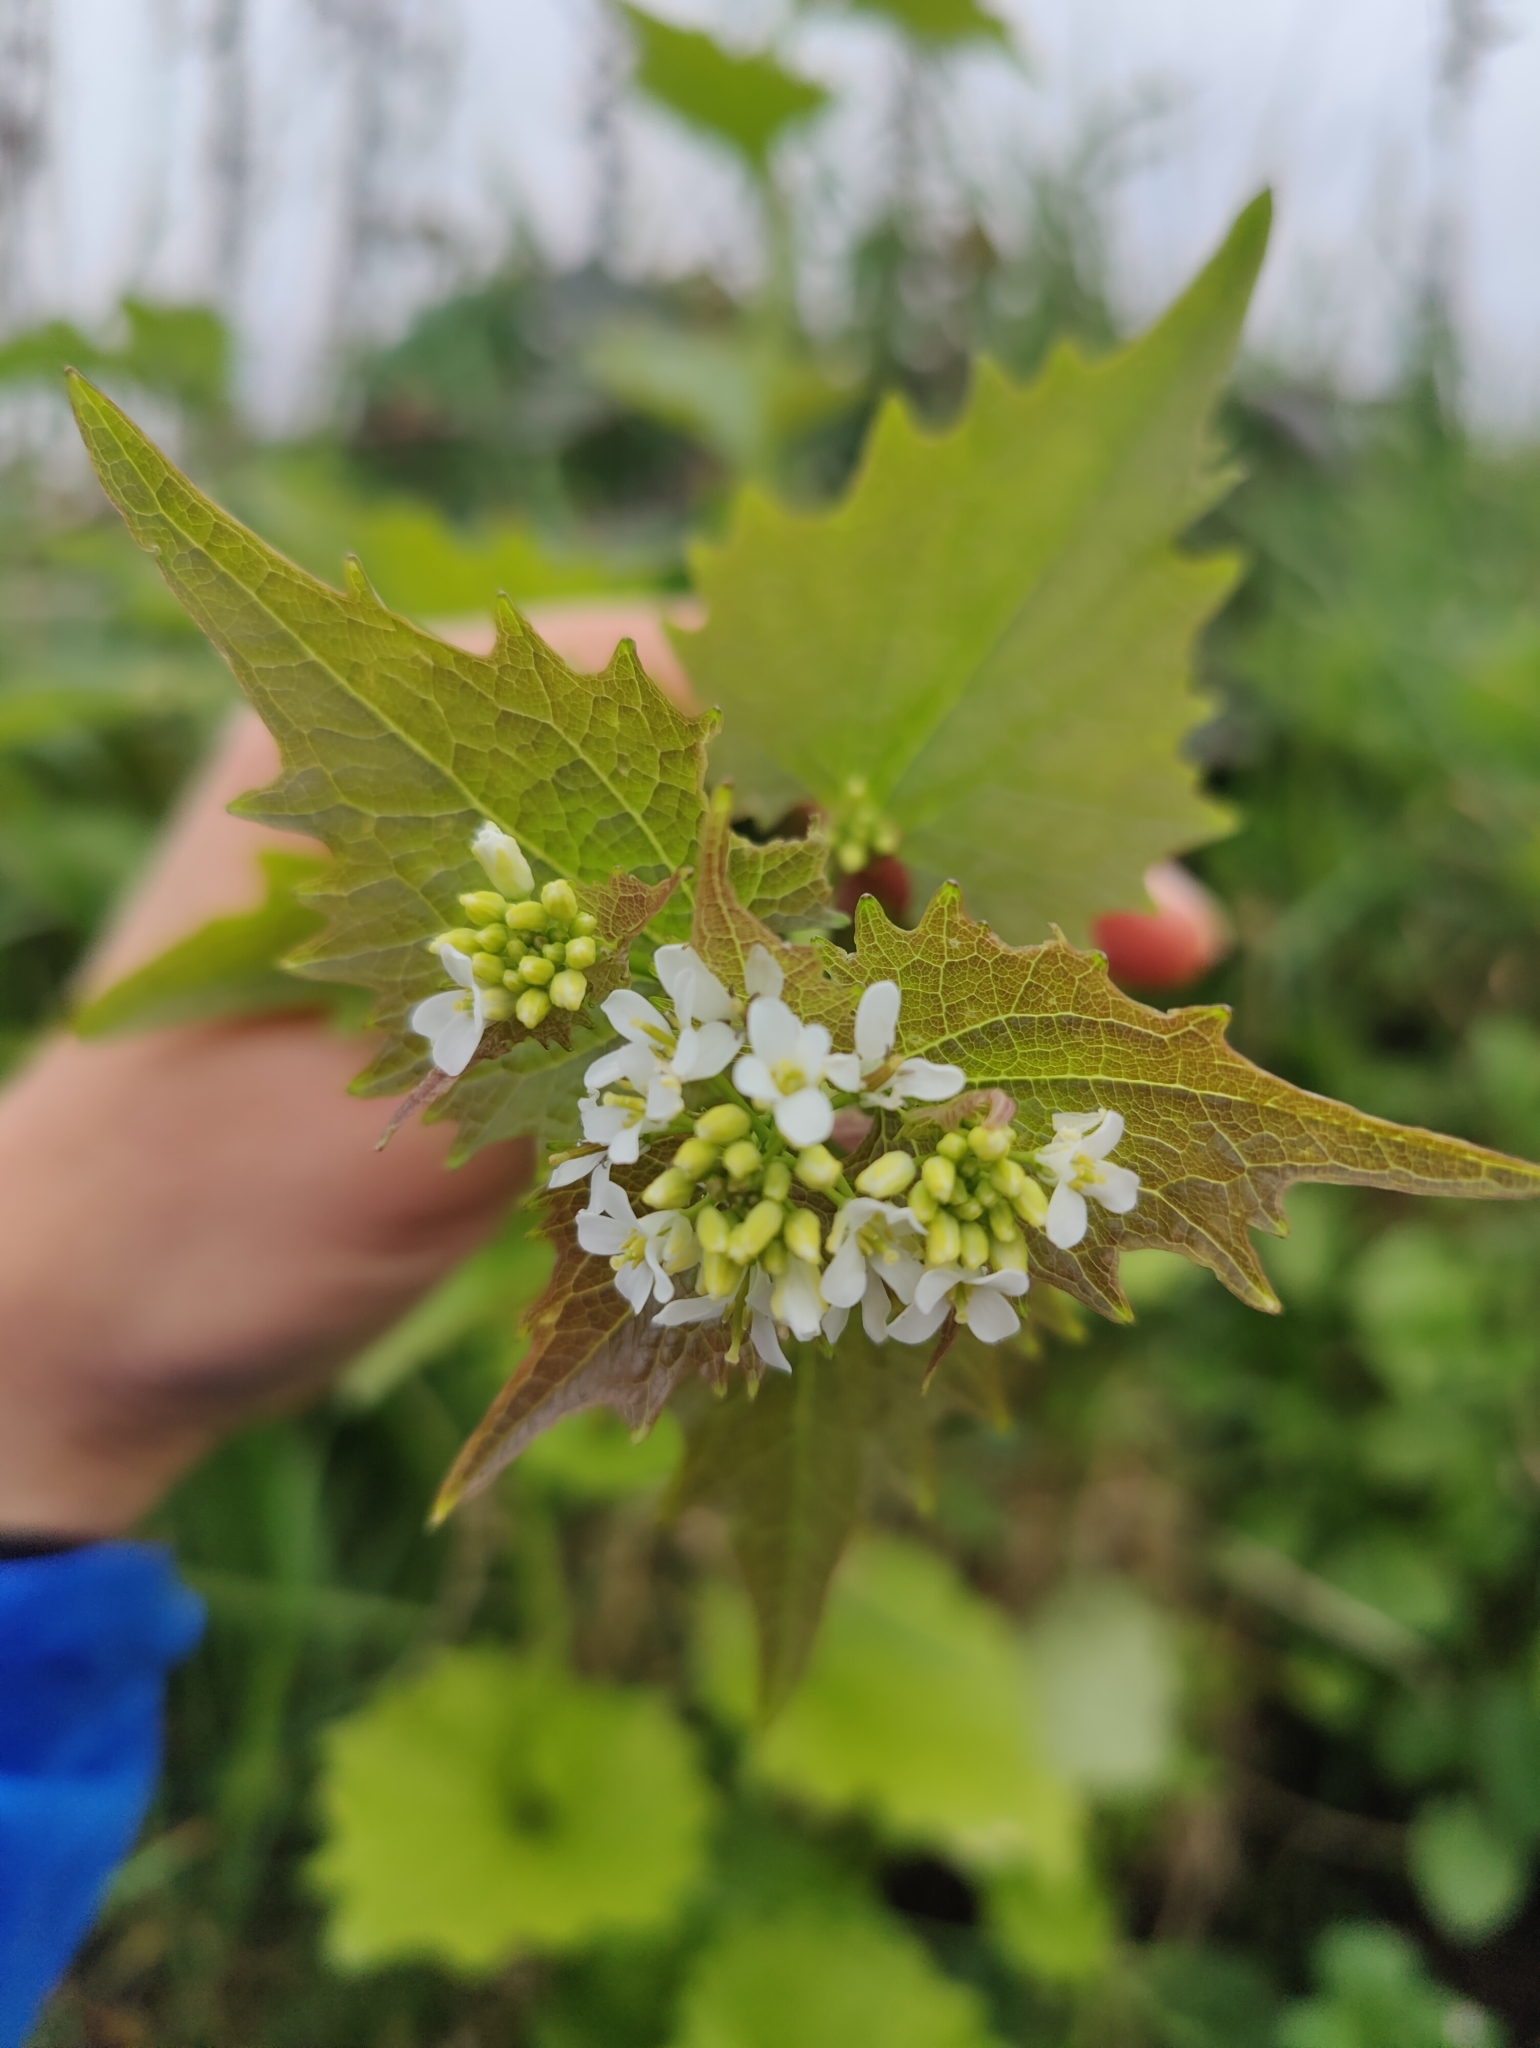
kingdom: Plantae
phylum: Tracheophyta
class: Magnoliopsida
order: Brassicales
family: Brassicaceae
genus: Alliaria
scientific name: Alliaria petiolata
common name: Garlic mustard
